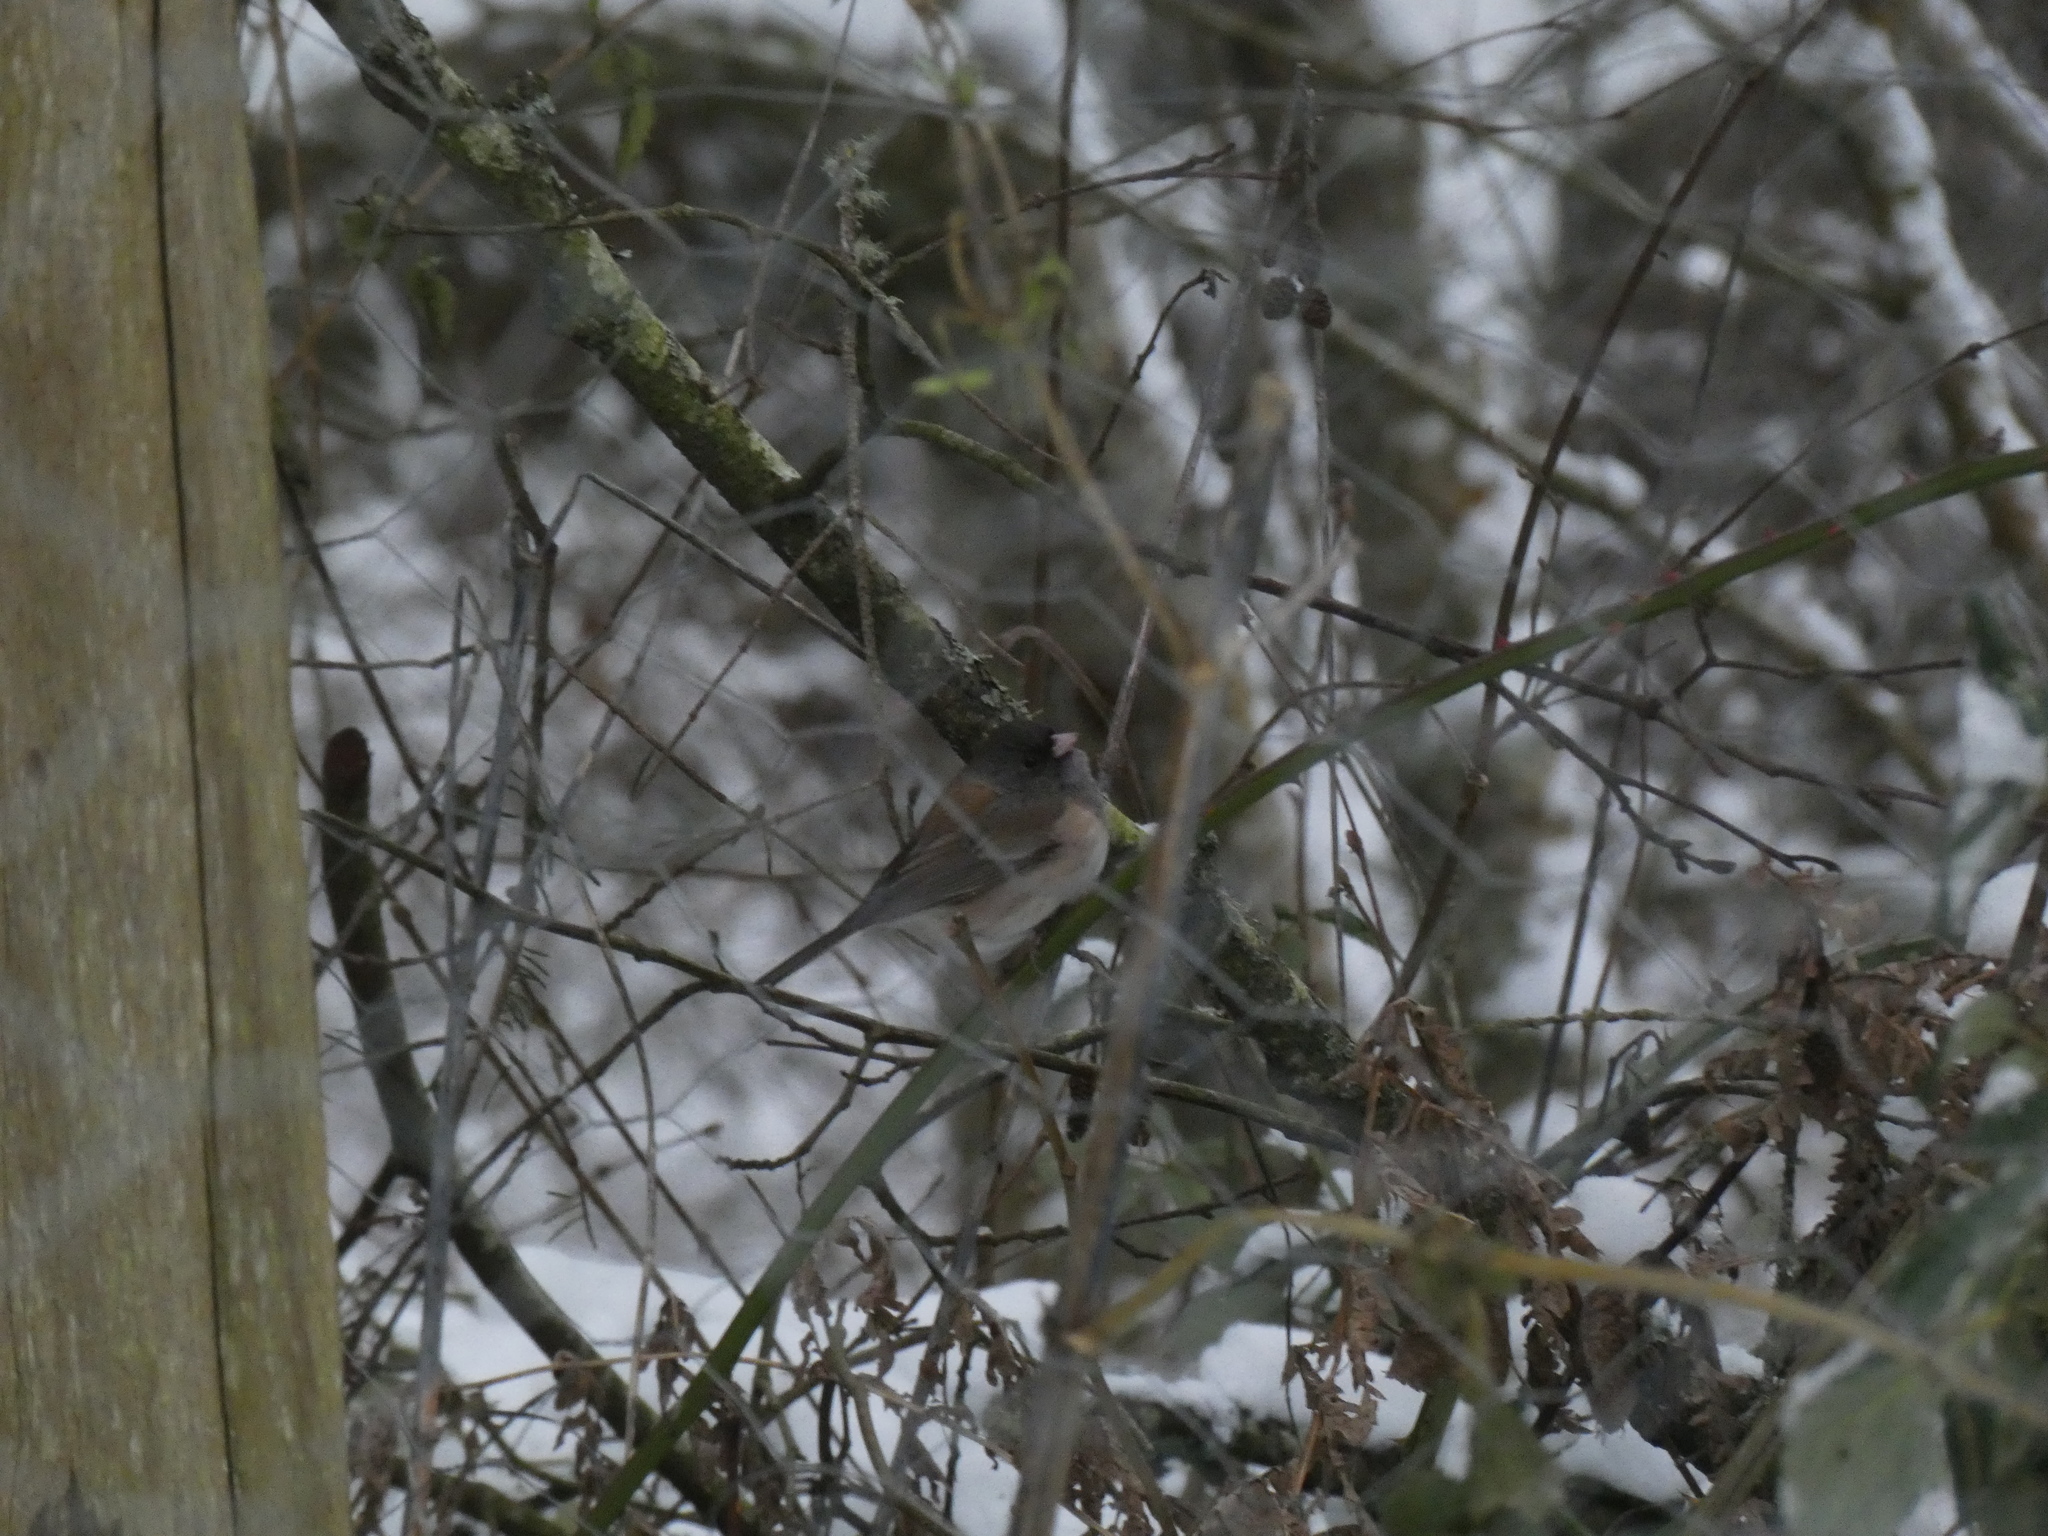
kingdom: Animalia
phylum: Chordata
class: Aves
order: Passeriformes
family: Passerellidae
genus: Junco
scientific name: Junco hyemalis
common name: Dark-eyed junco
